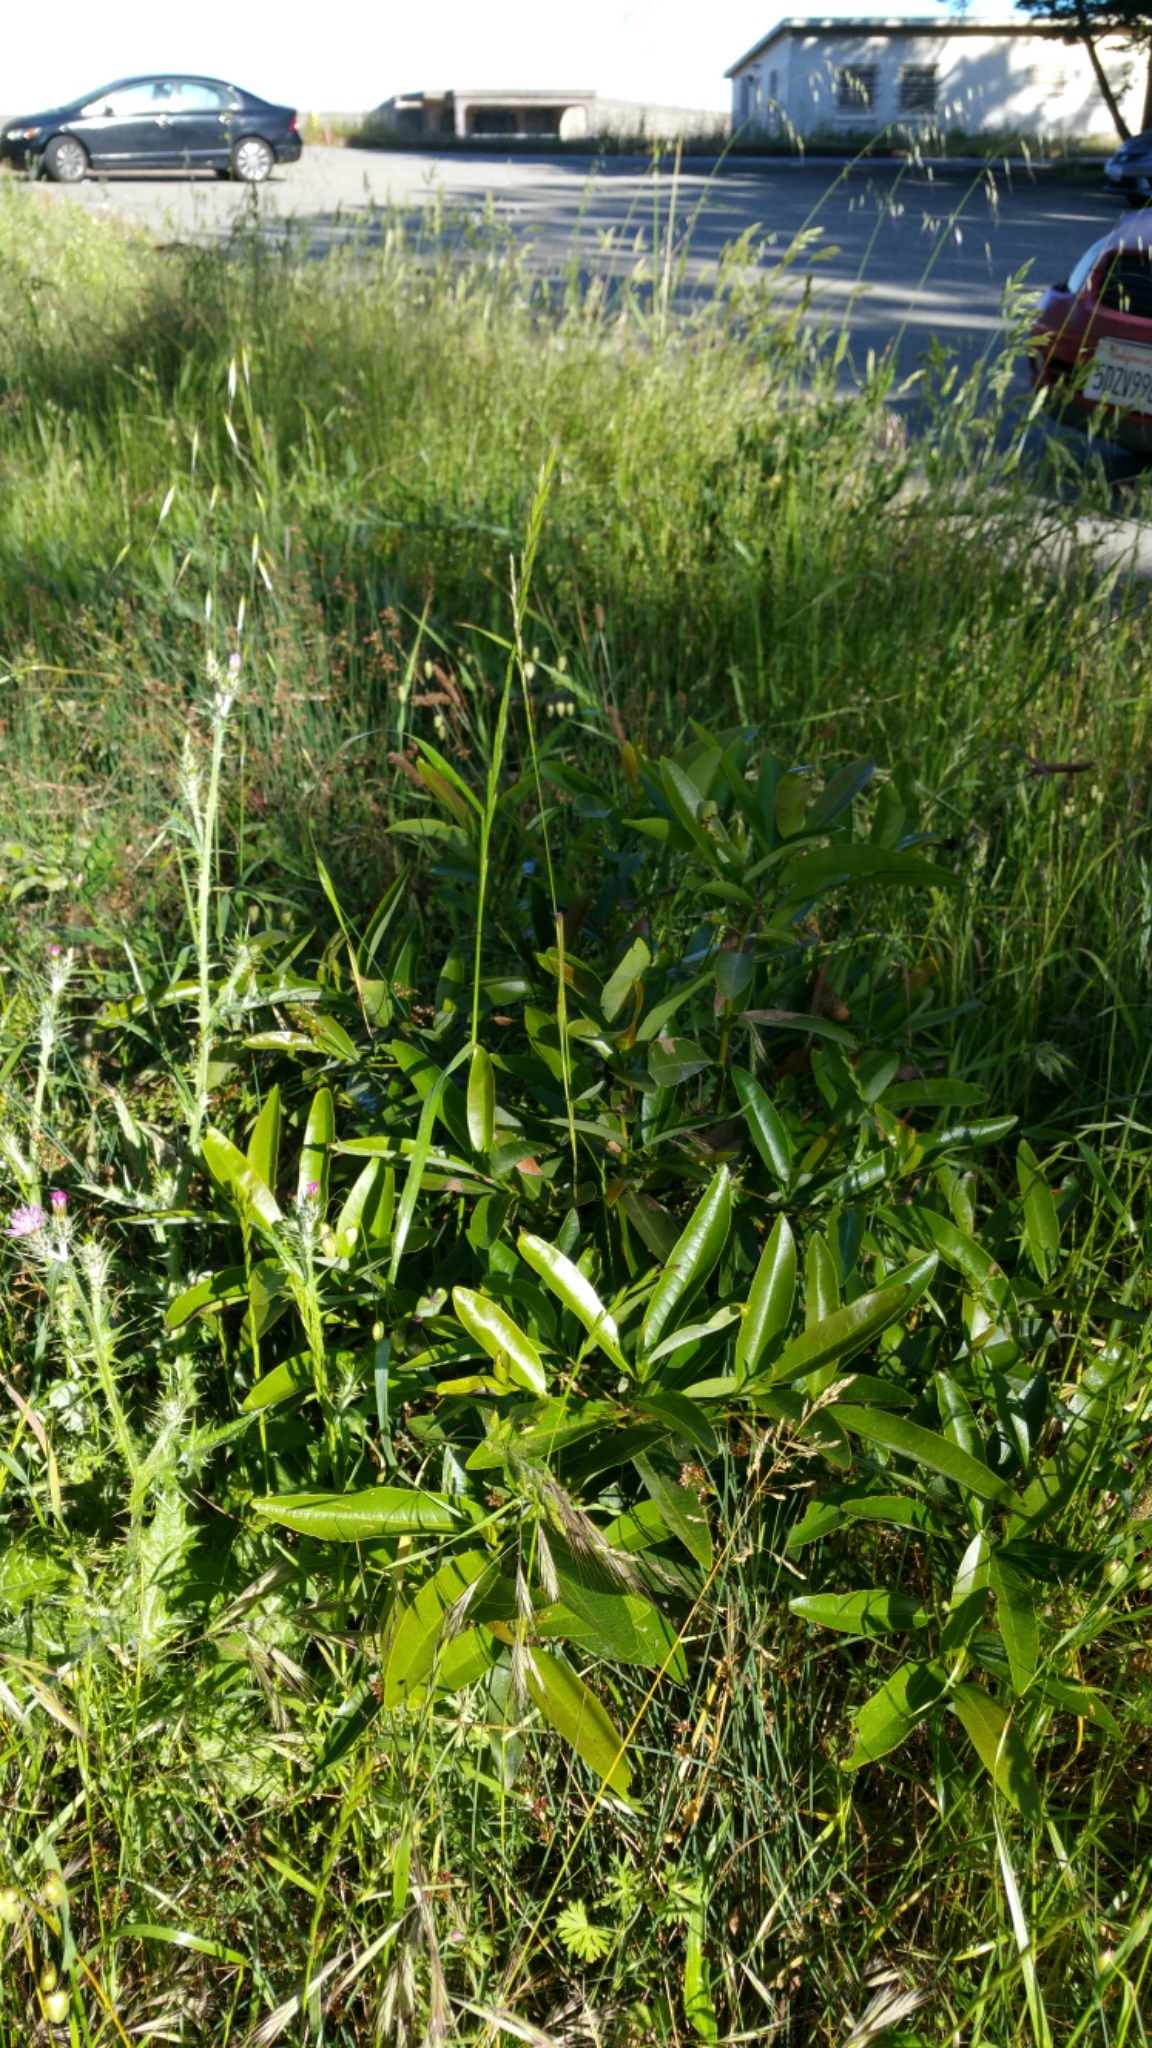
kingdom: Plantae
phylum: Tracheophyta
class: Magnoliopsida
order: Laurales
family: Lauraceae
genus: Umbellularia
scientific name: Umbellularia californica
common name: California bay
